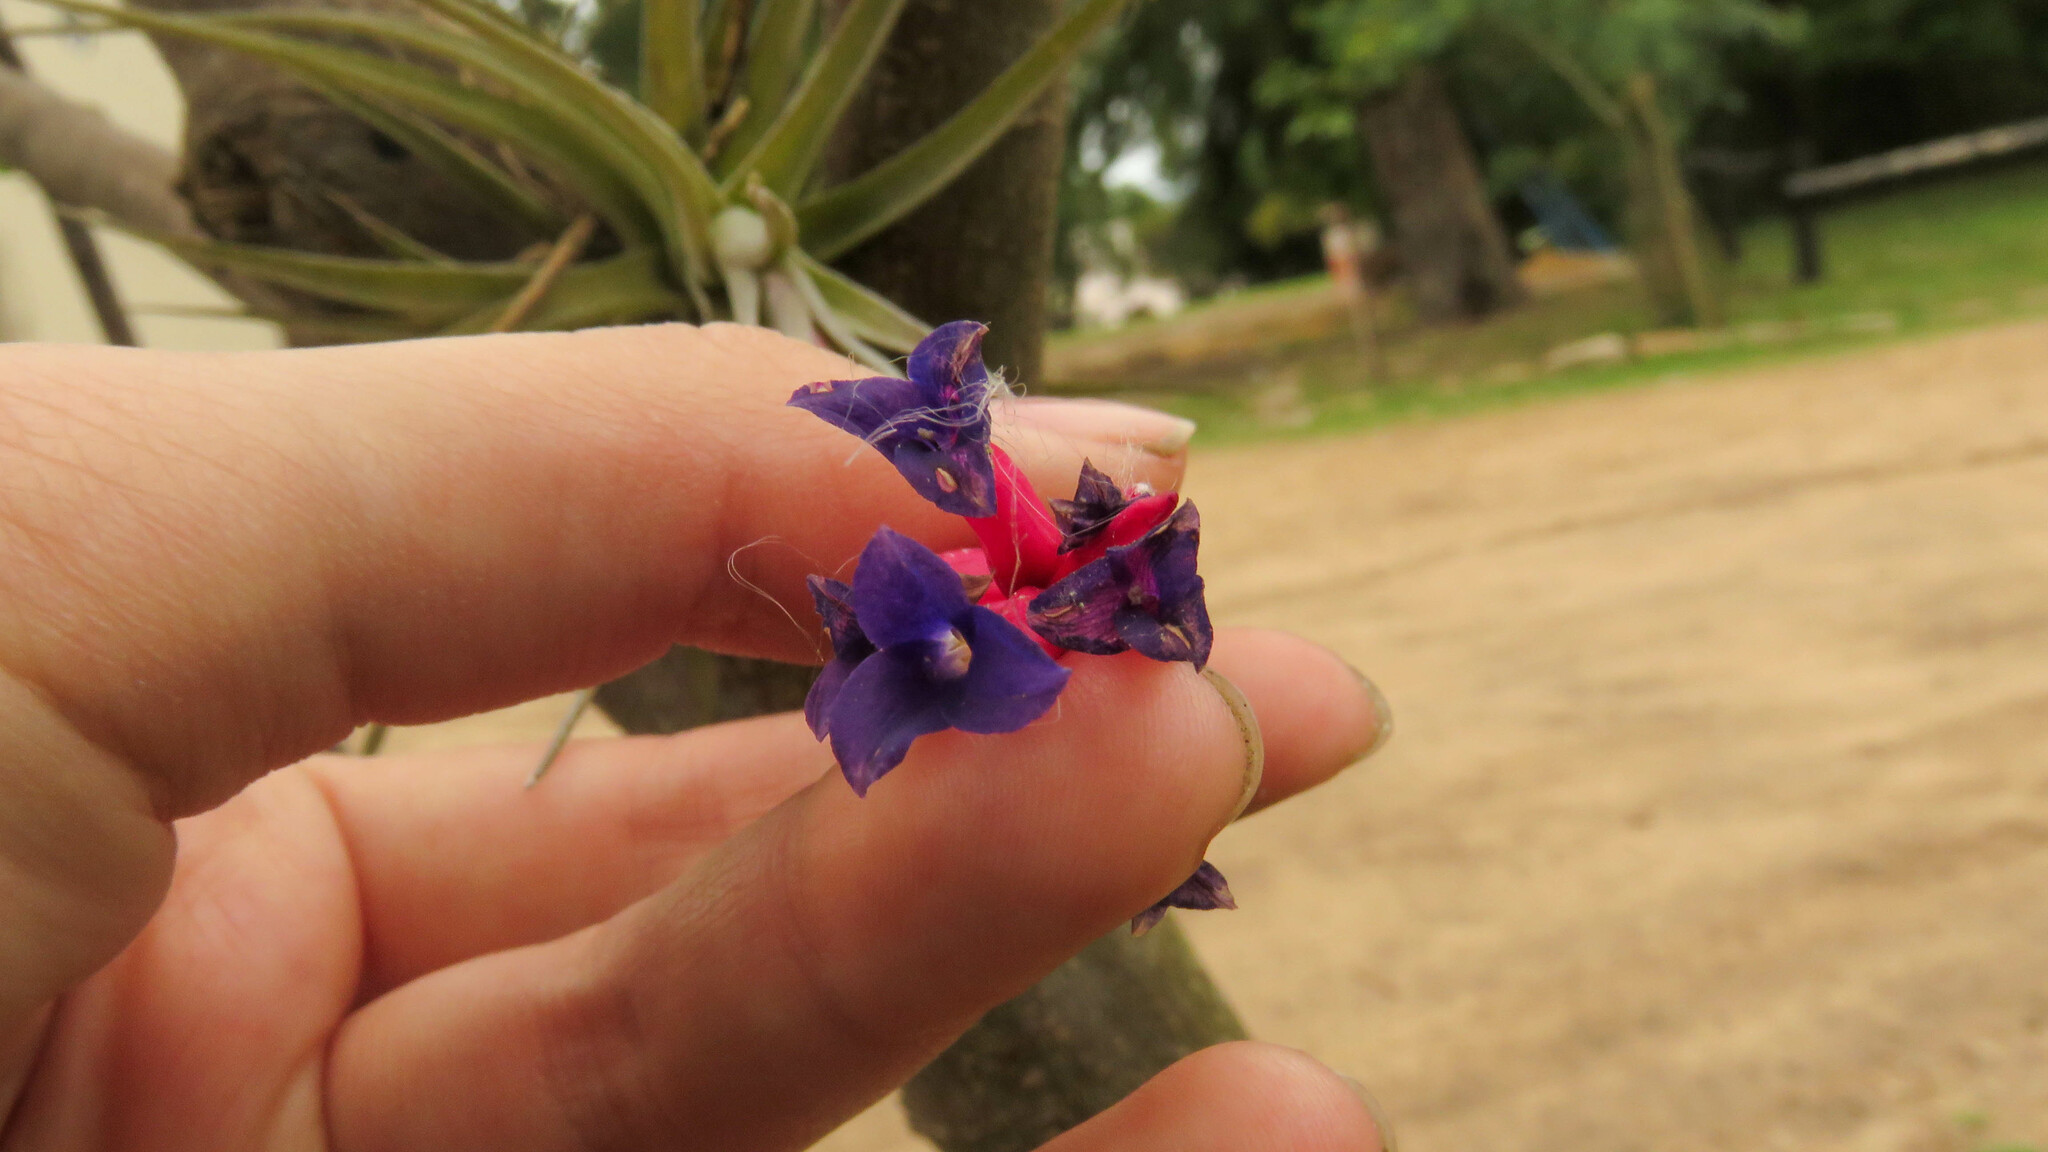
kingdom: Plantae
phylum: Tracheophyta
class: Liliopsida
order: Poales
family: Bromeliaceae
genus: Tillandsia
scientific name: Tillandsia aeranthos
